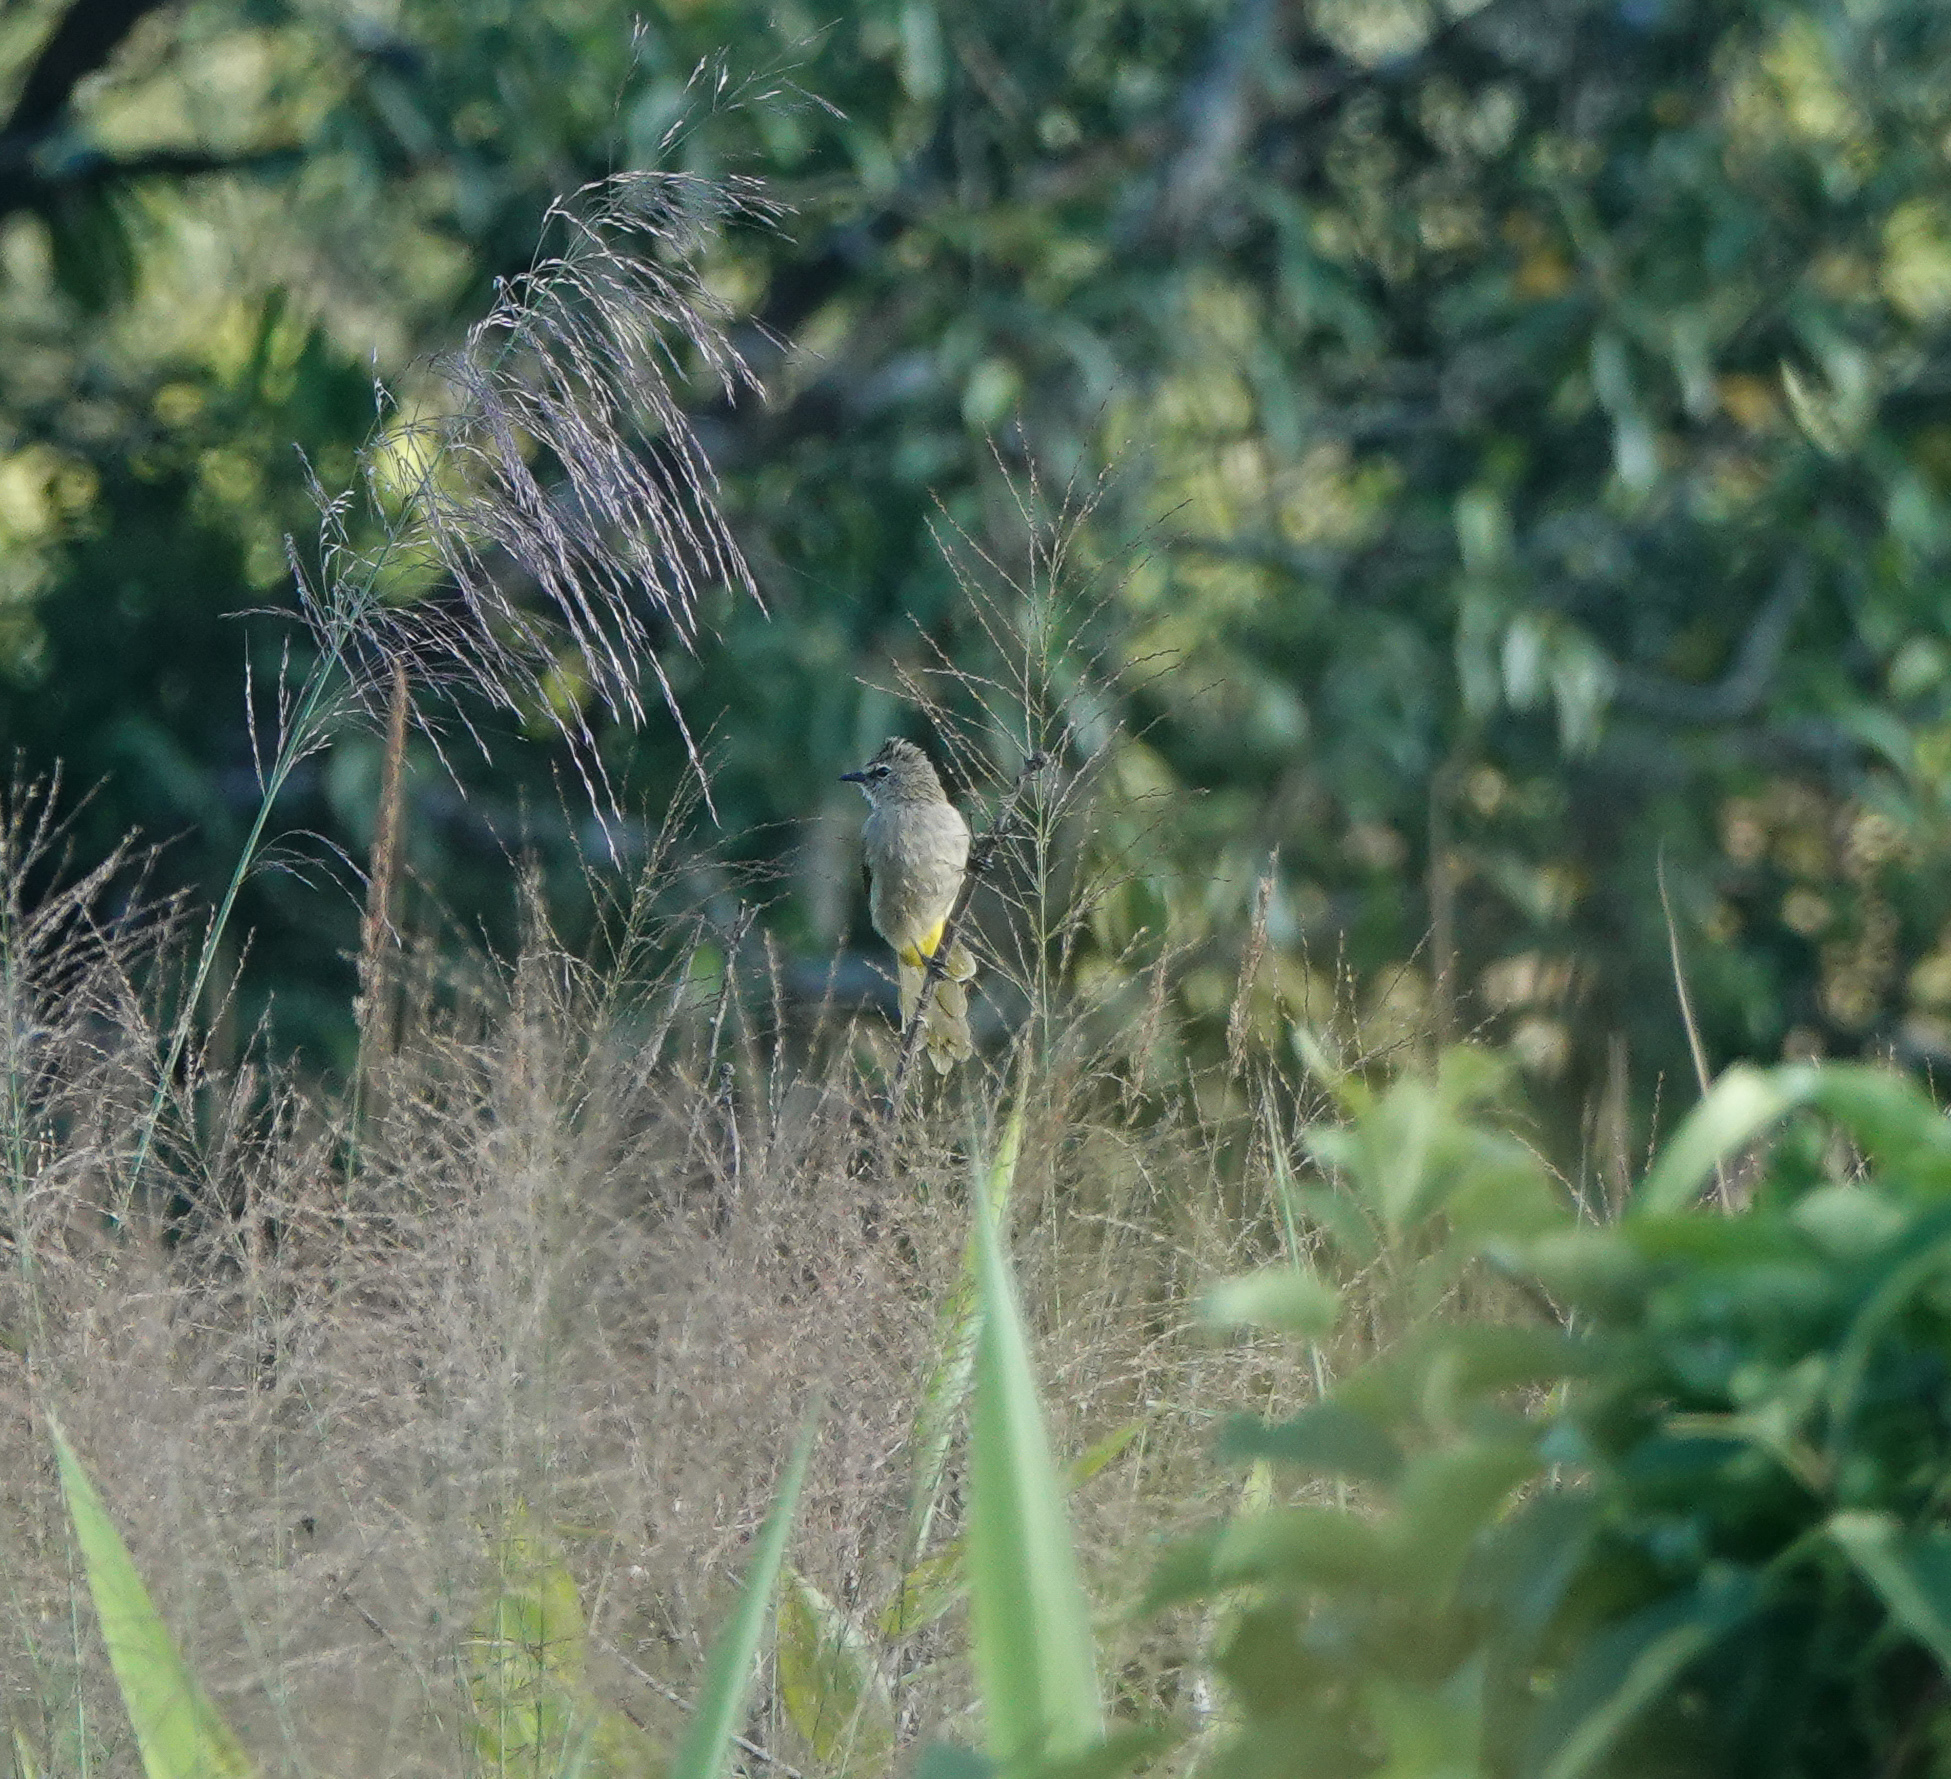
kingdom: Animalia
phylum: Chordata
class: Aves
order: Passeriformes
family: Pycnonotidae
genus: Pycnonotus
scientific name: Pycnonotus flavescens
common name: Flavescent bulbul
